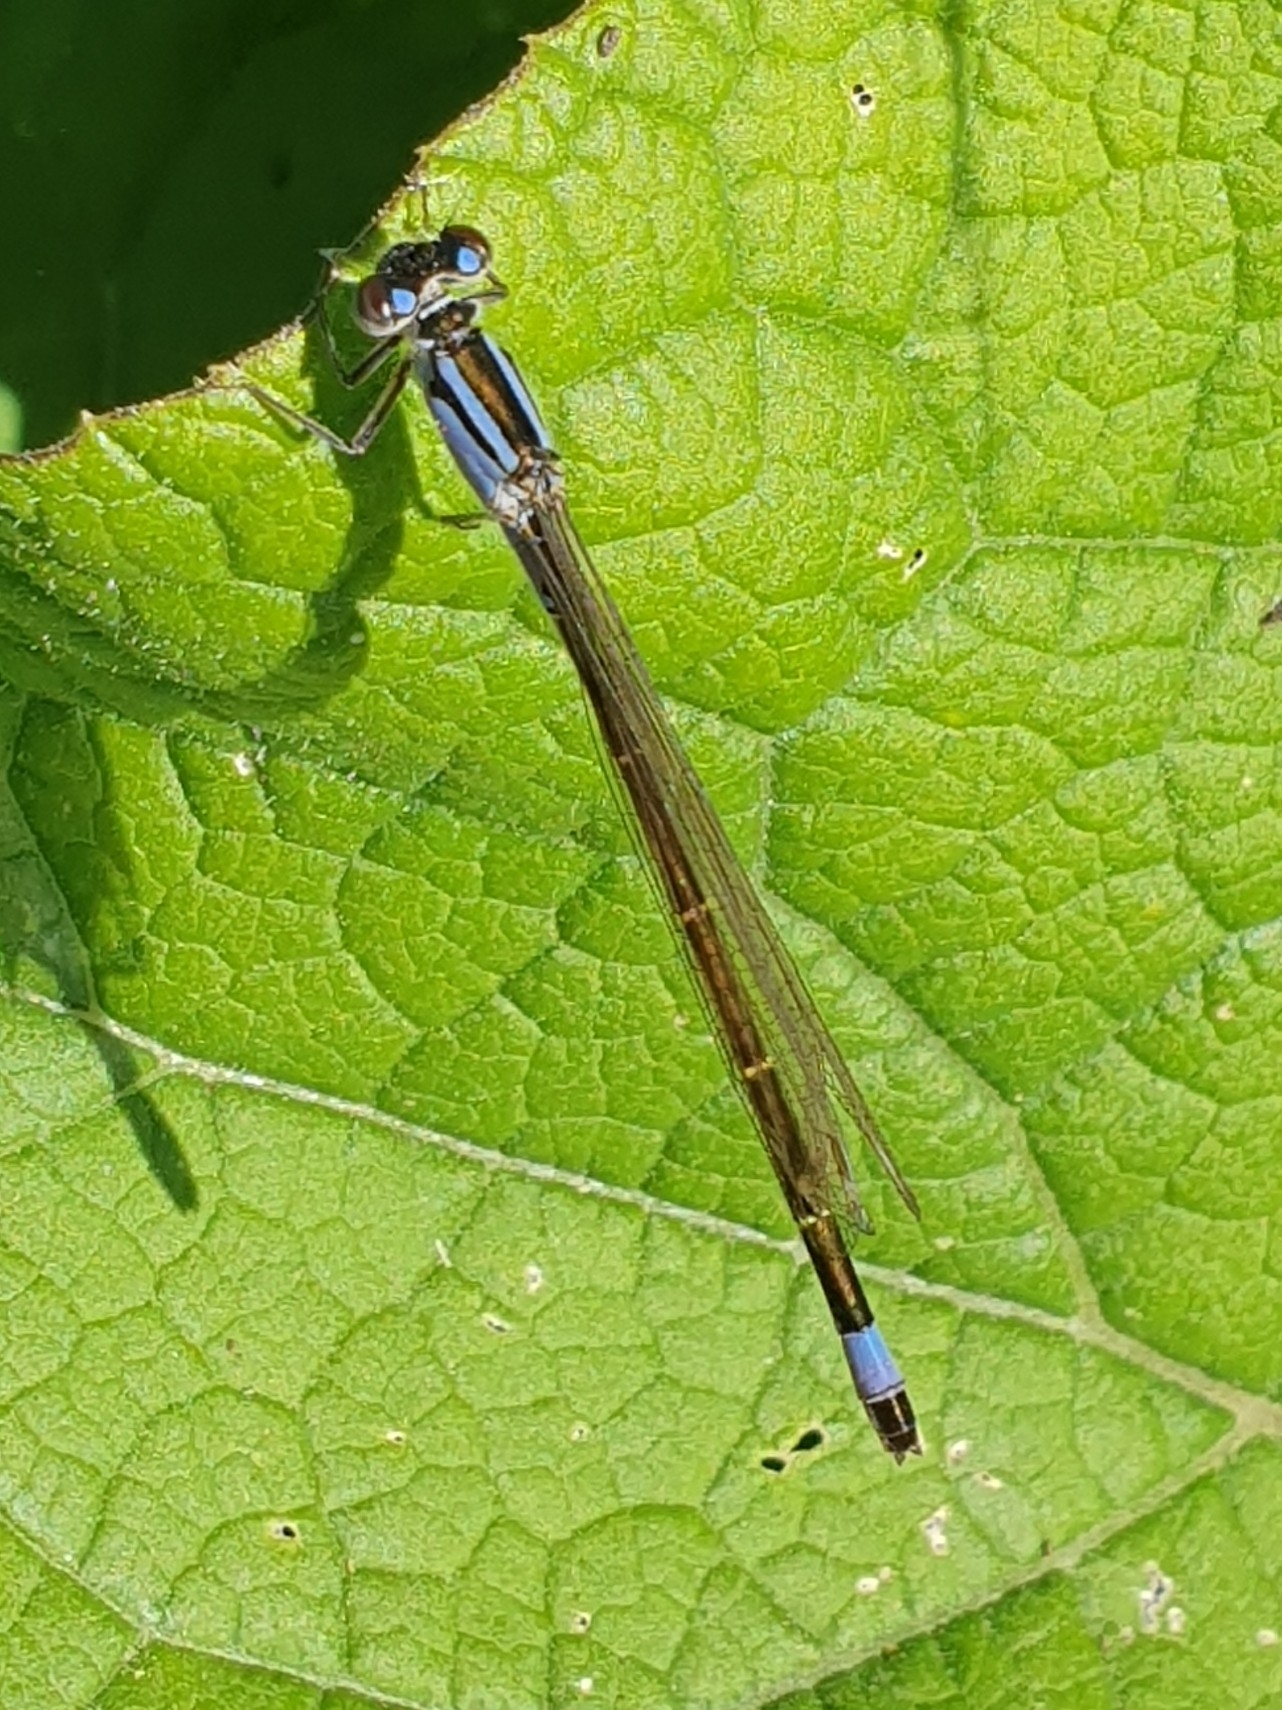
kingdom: Animalia
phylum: Arthropoda
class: Insecta
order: Odonata
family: Coenagrionidae
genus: Ischnura
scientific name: Ischnura elegans
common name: Blue-tailed damselfly
